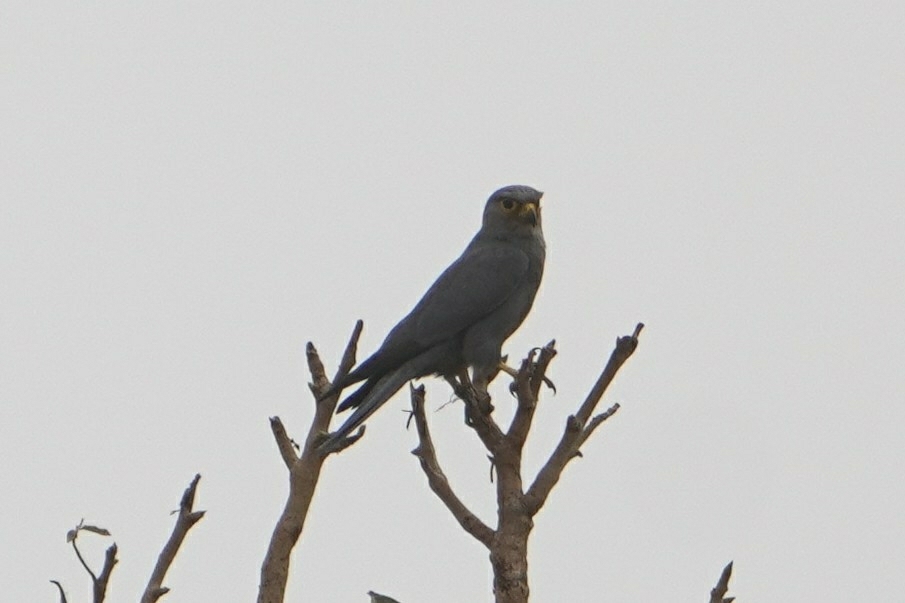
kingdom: Animalia
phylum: Chordata
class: Aves
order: Falconiformes
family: Falconidae
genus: Falco
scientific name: Falco ardosiaceus
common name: Grey kestrel
